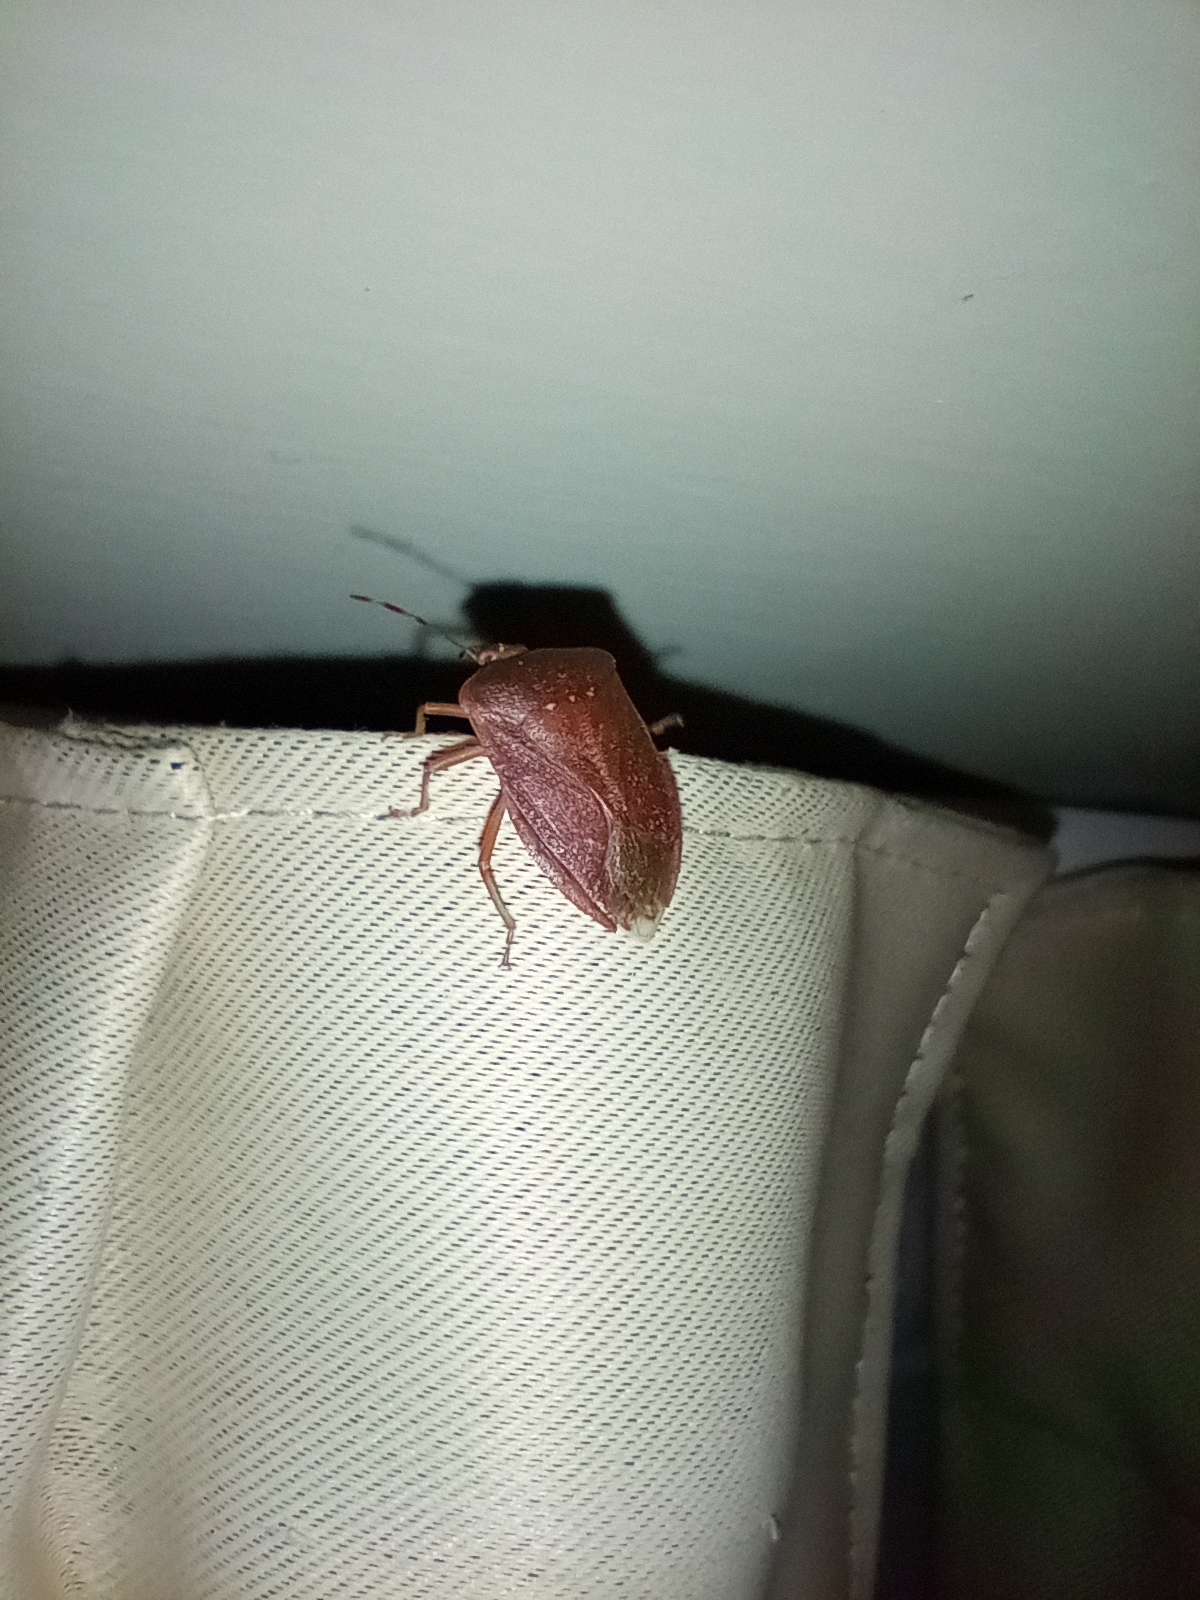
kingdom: Animalia
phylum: Arthropoda
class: Insecta
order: Hemiptera
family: Pentatomidae
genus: Nezara
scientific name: Nezara viridula
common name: Southern green stink bug
